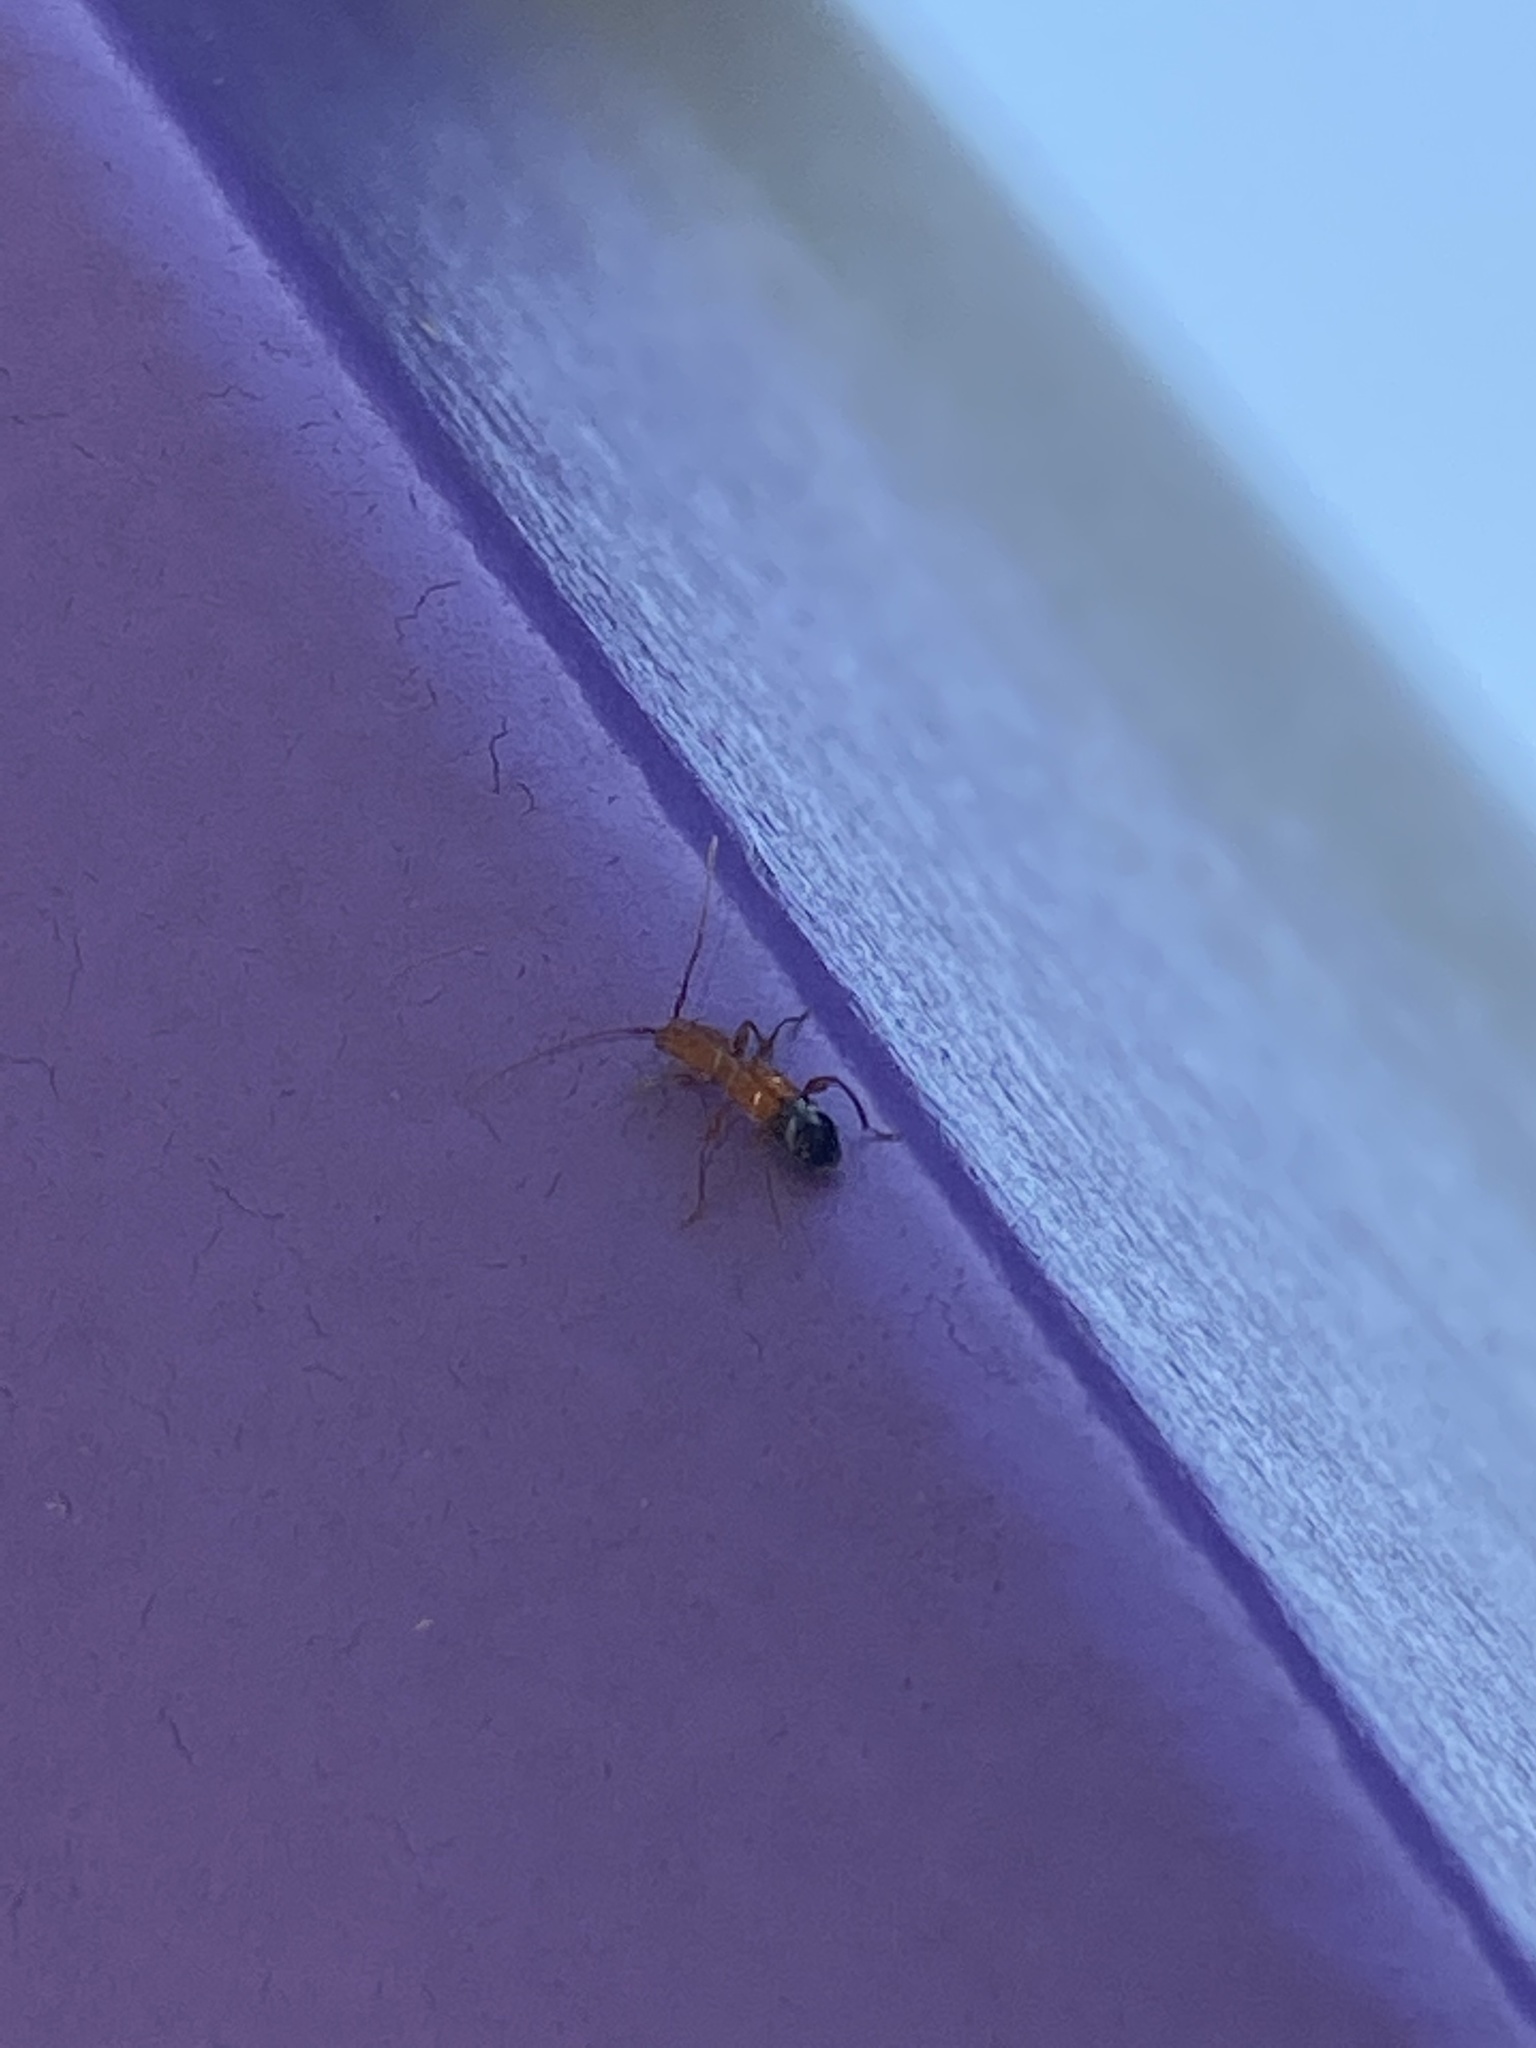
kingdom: Animalia
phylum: Arthropoda
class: Insecta
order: Coleoptera
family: Cerambycidae
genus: Euderces
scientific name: Euderces pini
